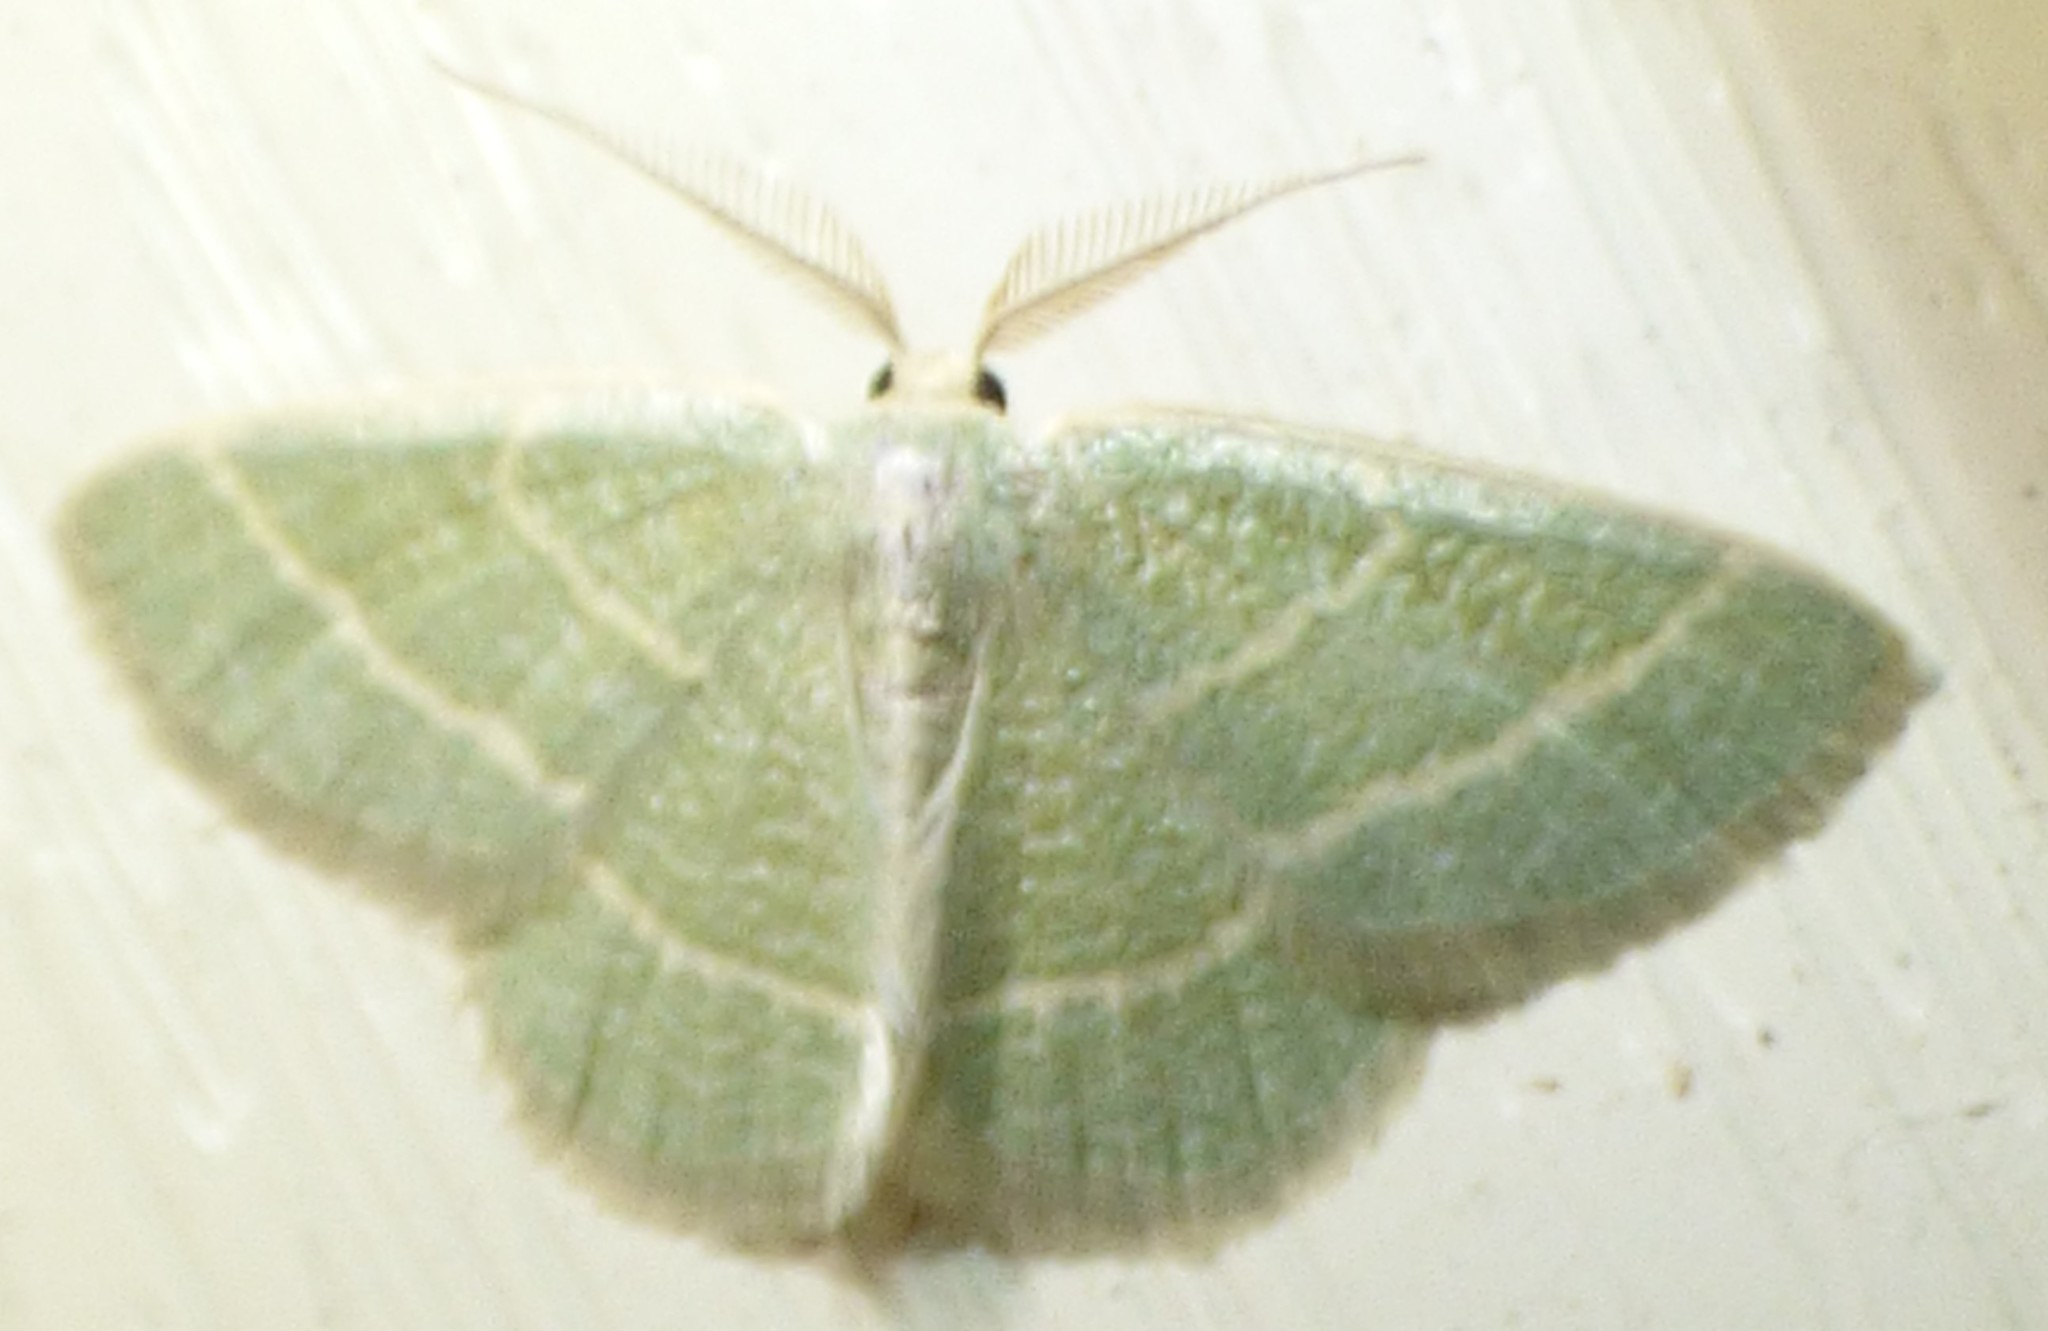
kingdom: Animalia
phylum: Arthropoda
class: Insecta
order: Lepidoptera
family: Geometridae
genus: Chlorochlamys
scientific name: Chlorochlamys chloroleucaria
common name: Blackberry looper
